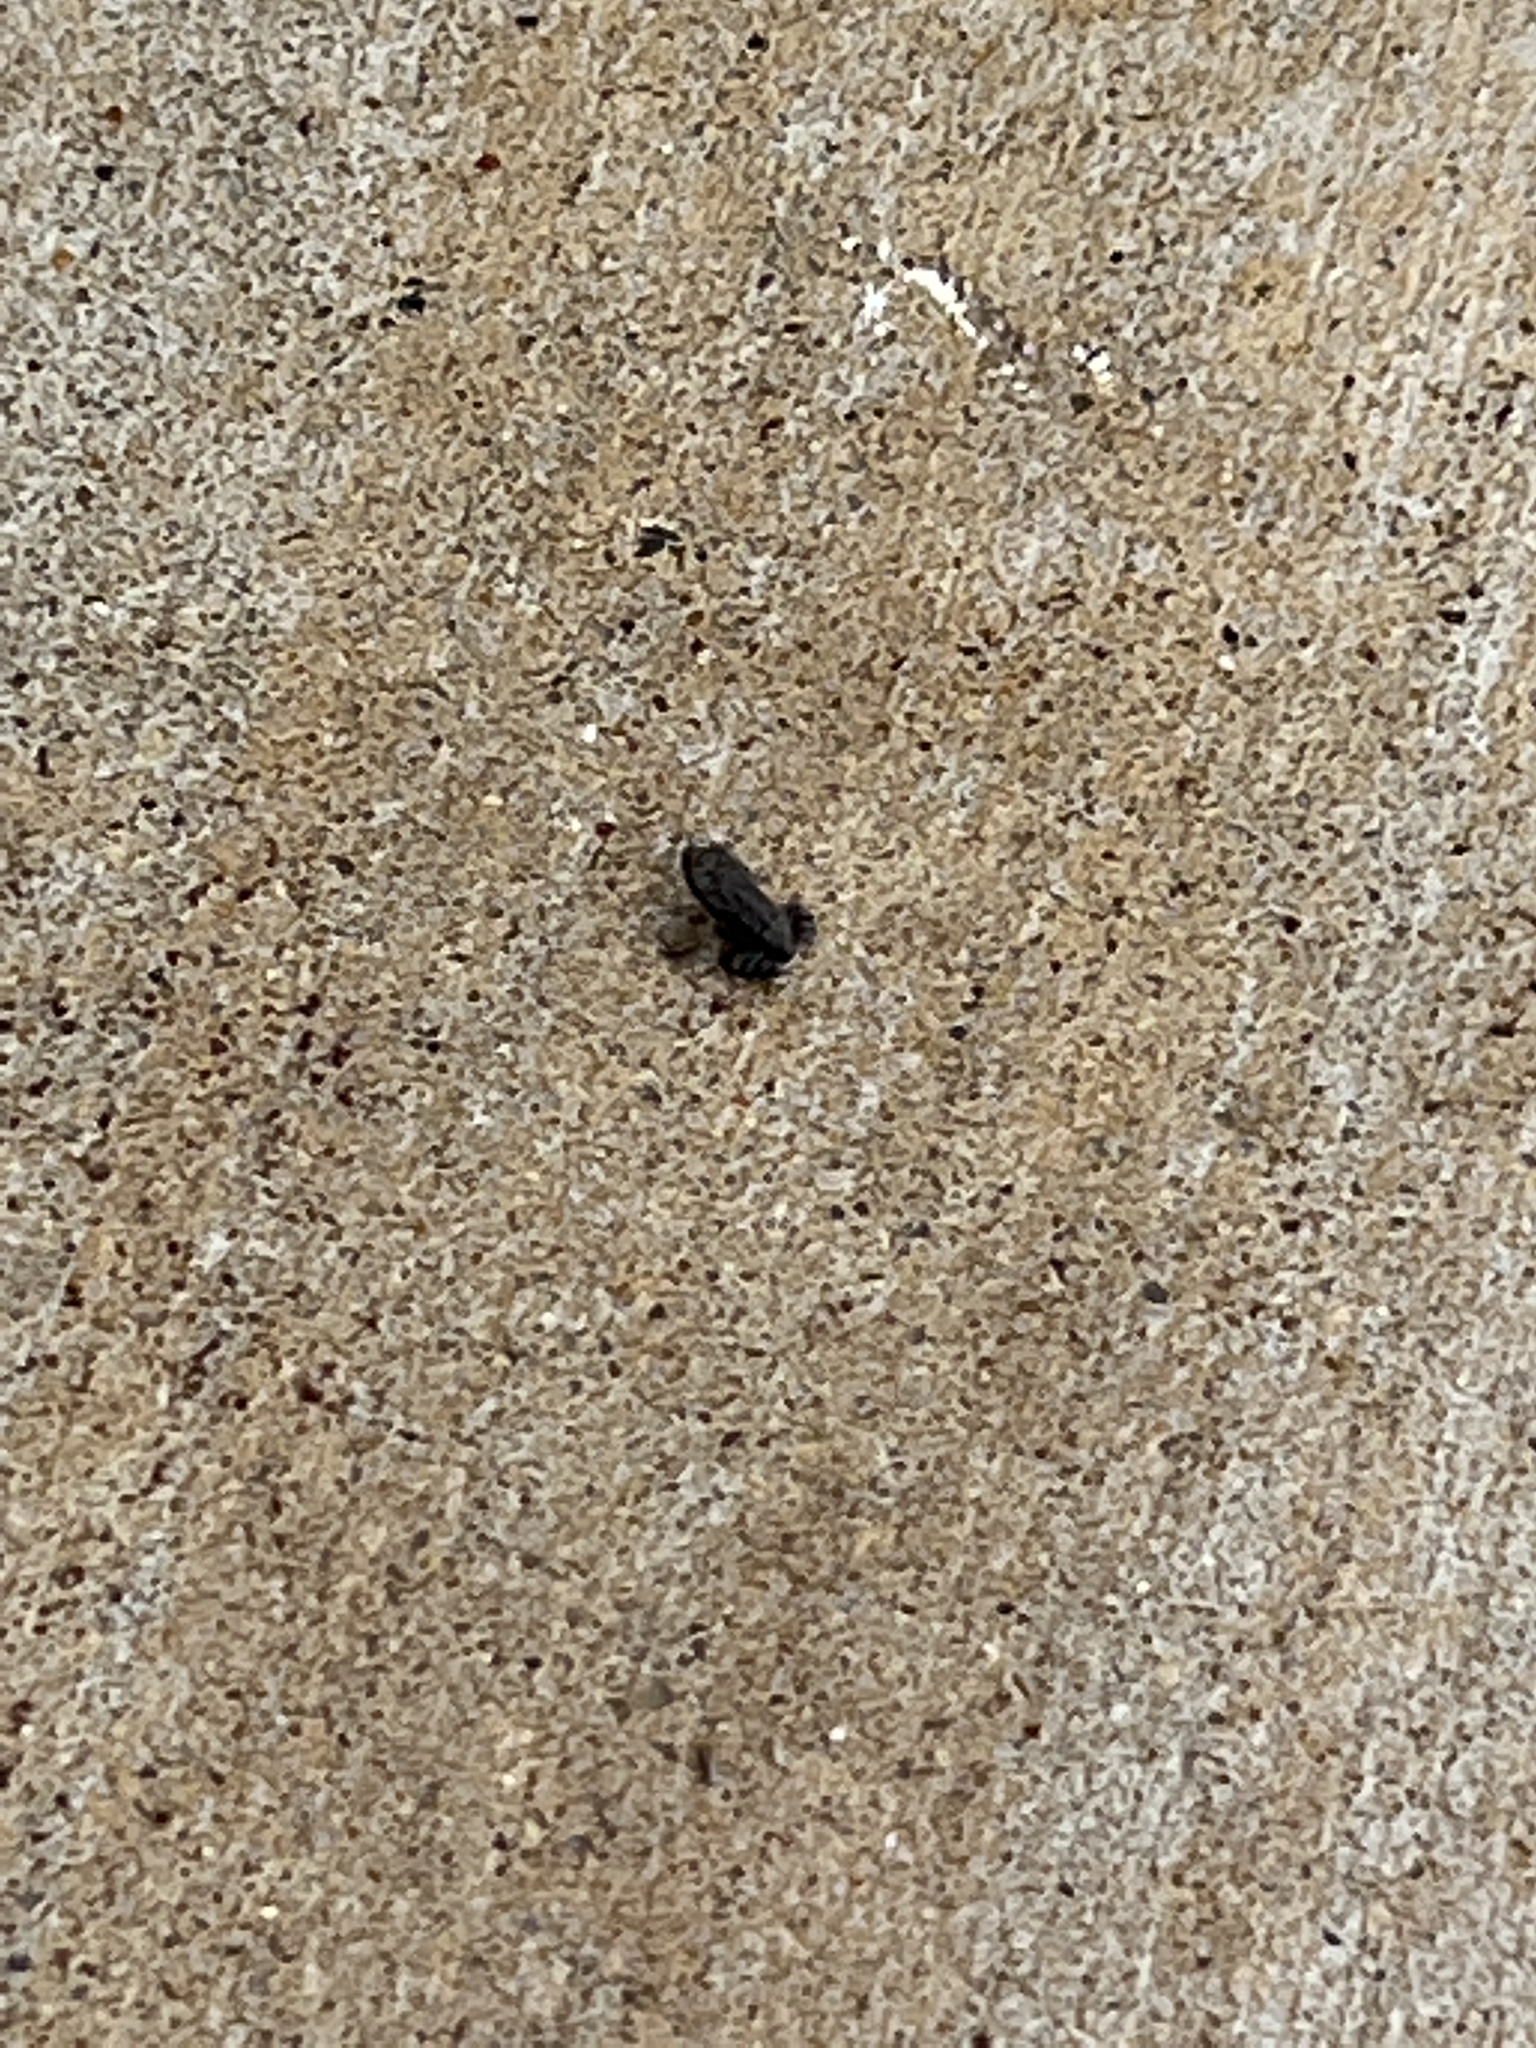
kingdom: Animalia
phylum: Chordata
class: Amphibia
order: Anura
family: Bufonidae
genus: Incilius
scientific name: Incilius nebulifer
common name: Gulf coast toad
